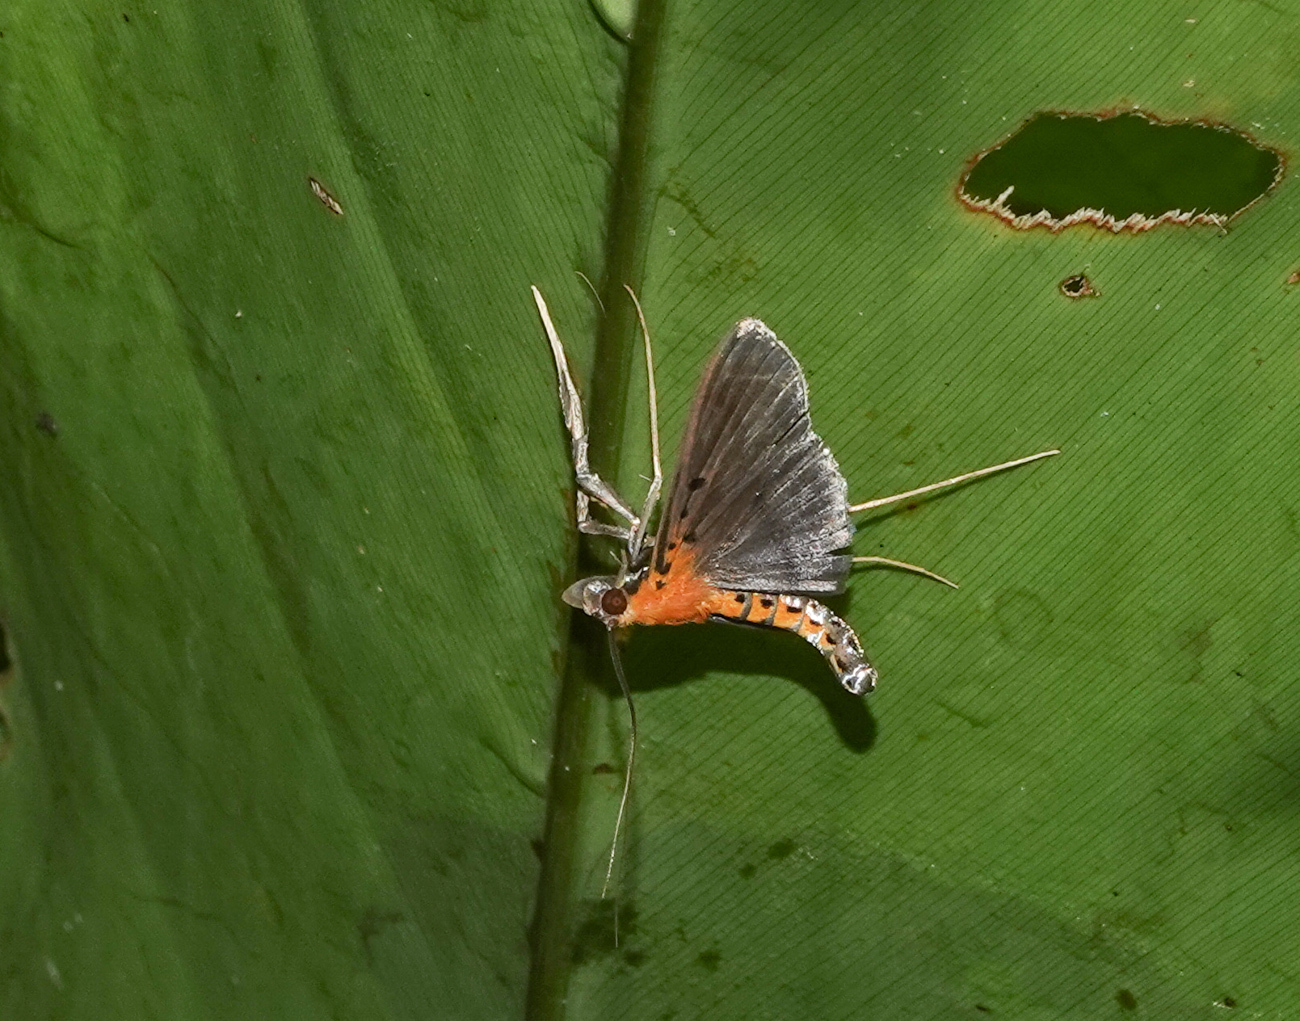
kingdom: Animalia
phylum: Arthropoda
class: Insecta
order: Lepidoptera
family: Crambidae
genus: Filodes
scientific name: Filodes fulvidorsalis
